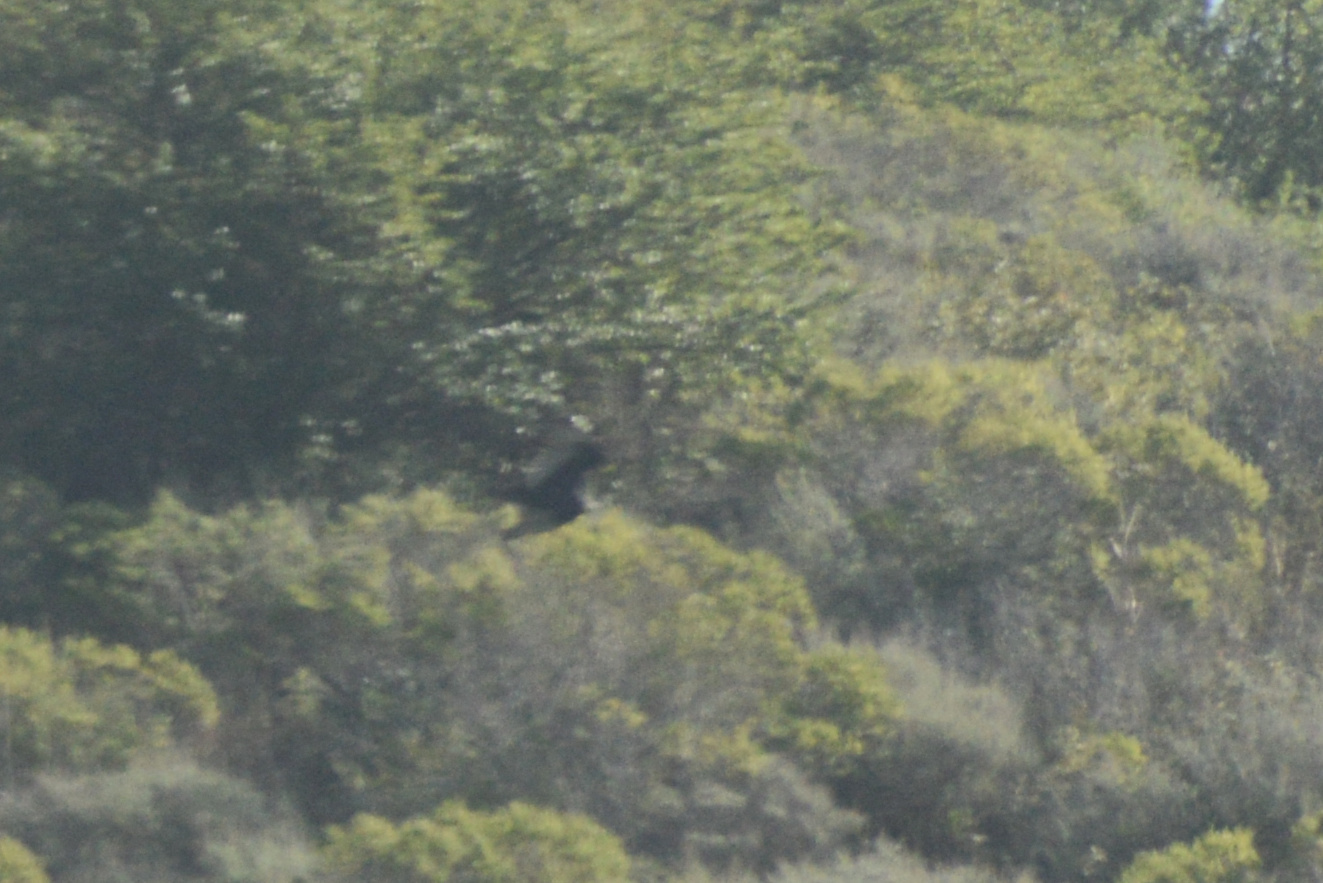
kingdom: Animalia
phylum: Chordata
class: Aves
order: Accipitriformes
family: Cathartidae
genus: Cathartes
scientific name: Cathartes aura
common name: Turkey vulture
